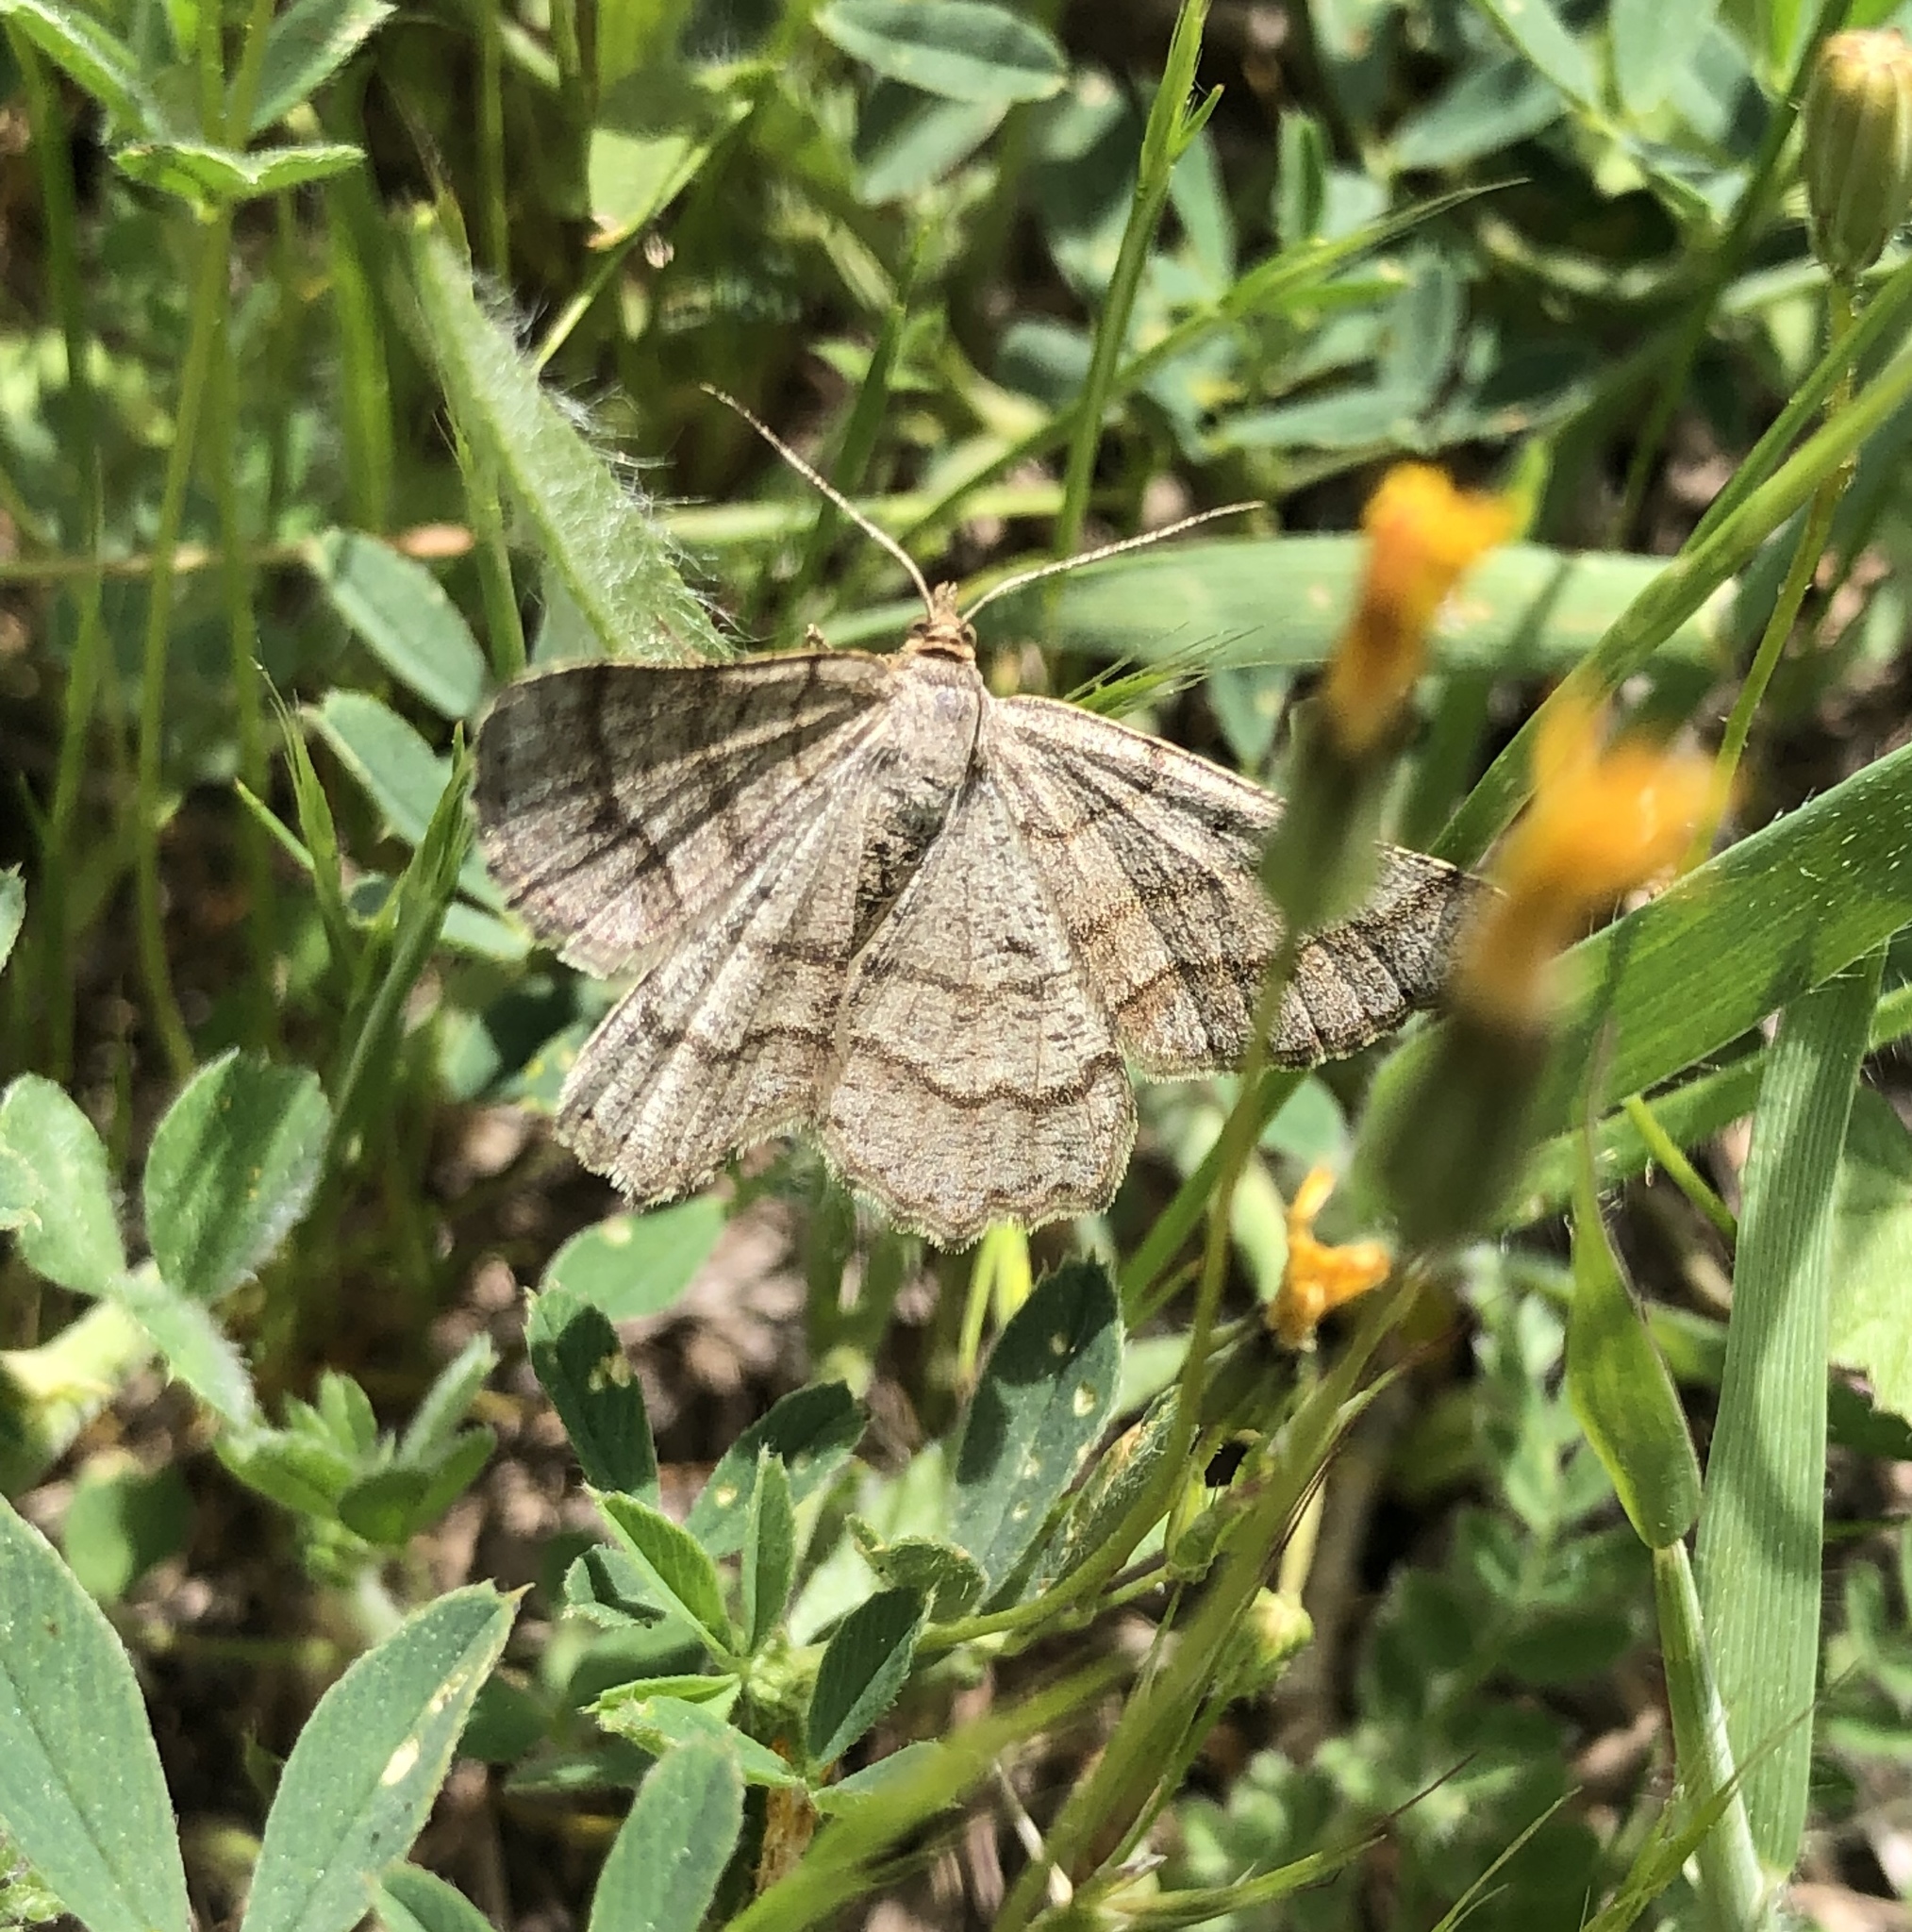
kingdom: Animalia
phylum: Arthropoda
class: Insecta
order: Lepidoptera
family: Geometridae
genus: Tephrina
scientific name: Tephrina murinaria
